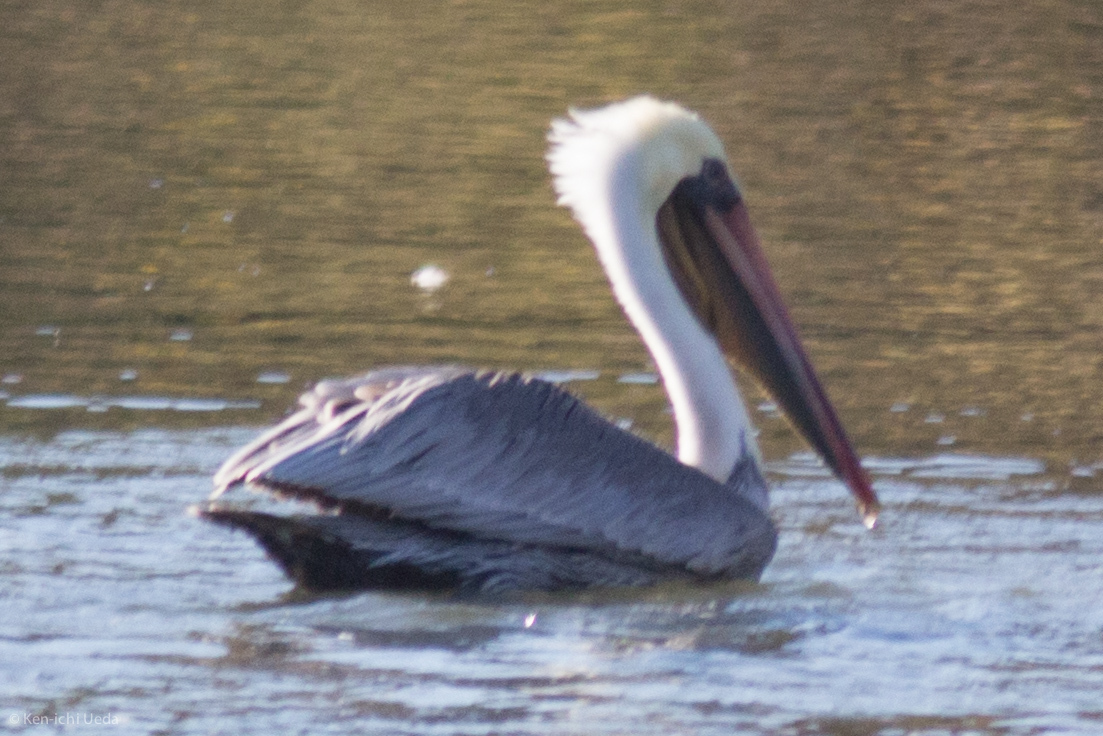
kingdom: Animalia
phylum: Chordata
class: Aves
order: Pelecaniformes
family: Pelecanidae
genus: Pelecanus
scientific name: Pelecanus occidentalis
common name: Brown pelican
